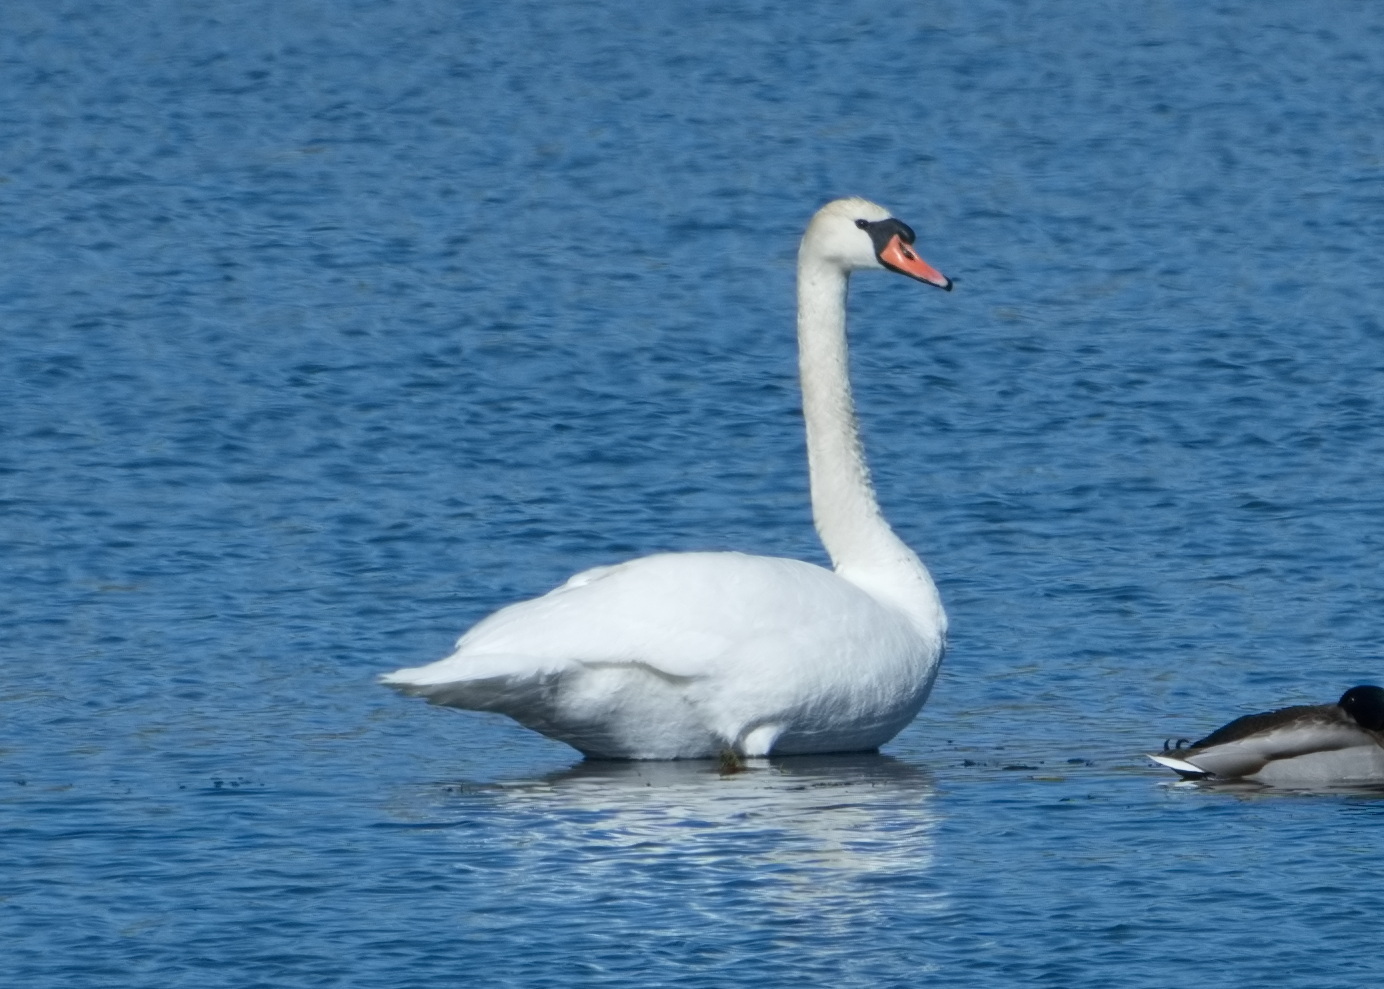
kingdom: Animalia
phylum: Chordata
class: Aves
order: Anseriformes
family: Anatidae
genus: Cygnus
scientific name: Cygnus olor
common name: Mute swan
